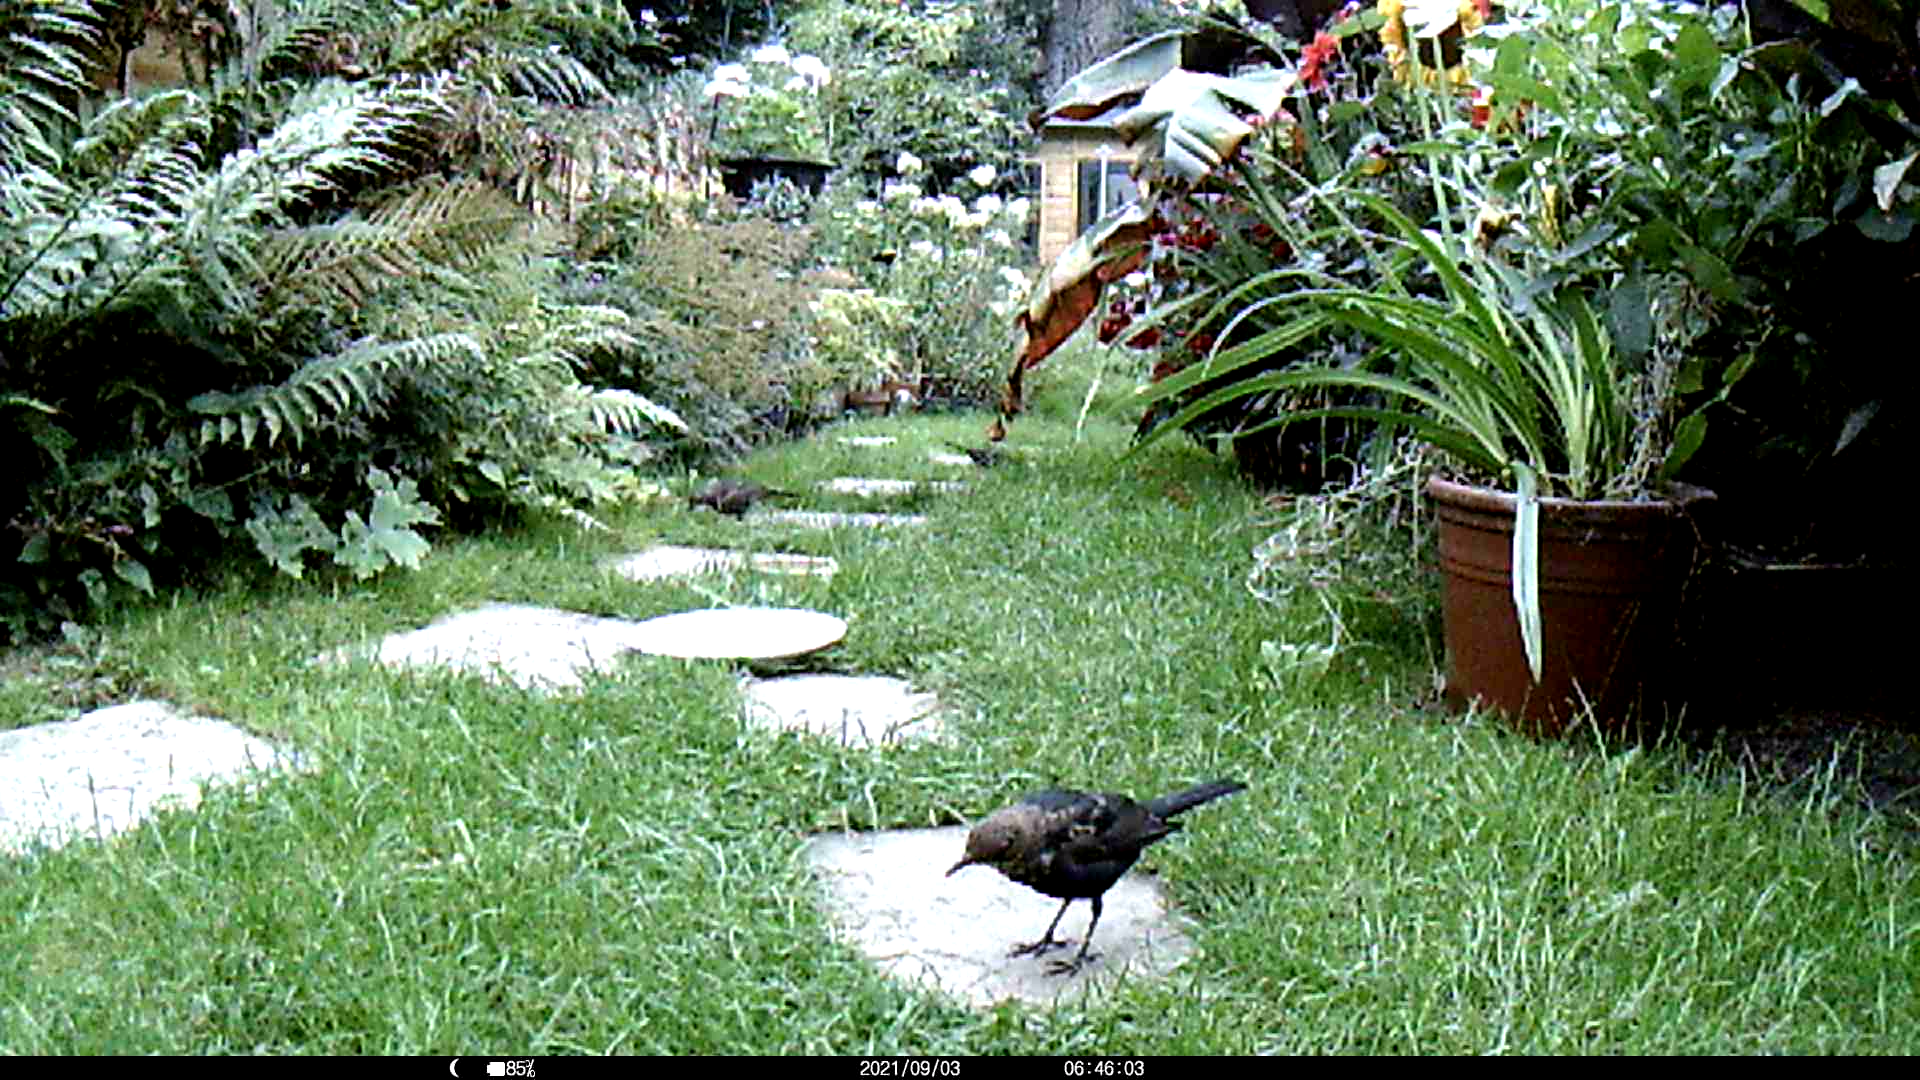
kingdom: Animalia
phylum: Chordata
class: Aves
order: Passeriformes
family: Sturnidae
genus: Sturnus
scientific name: Sturnus vulgaris
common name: Common starling
